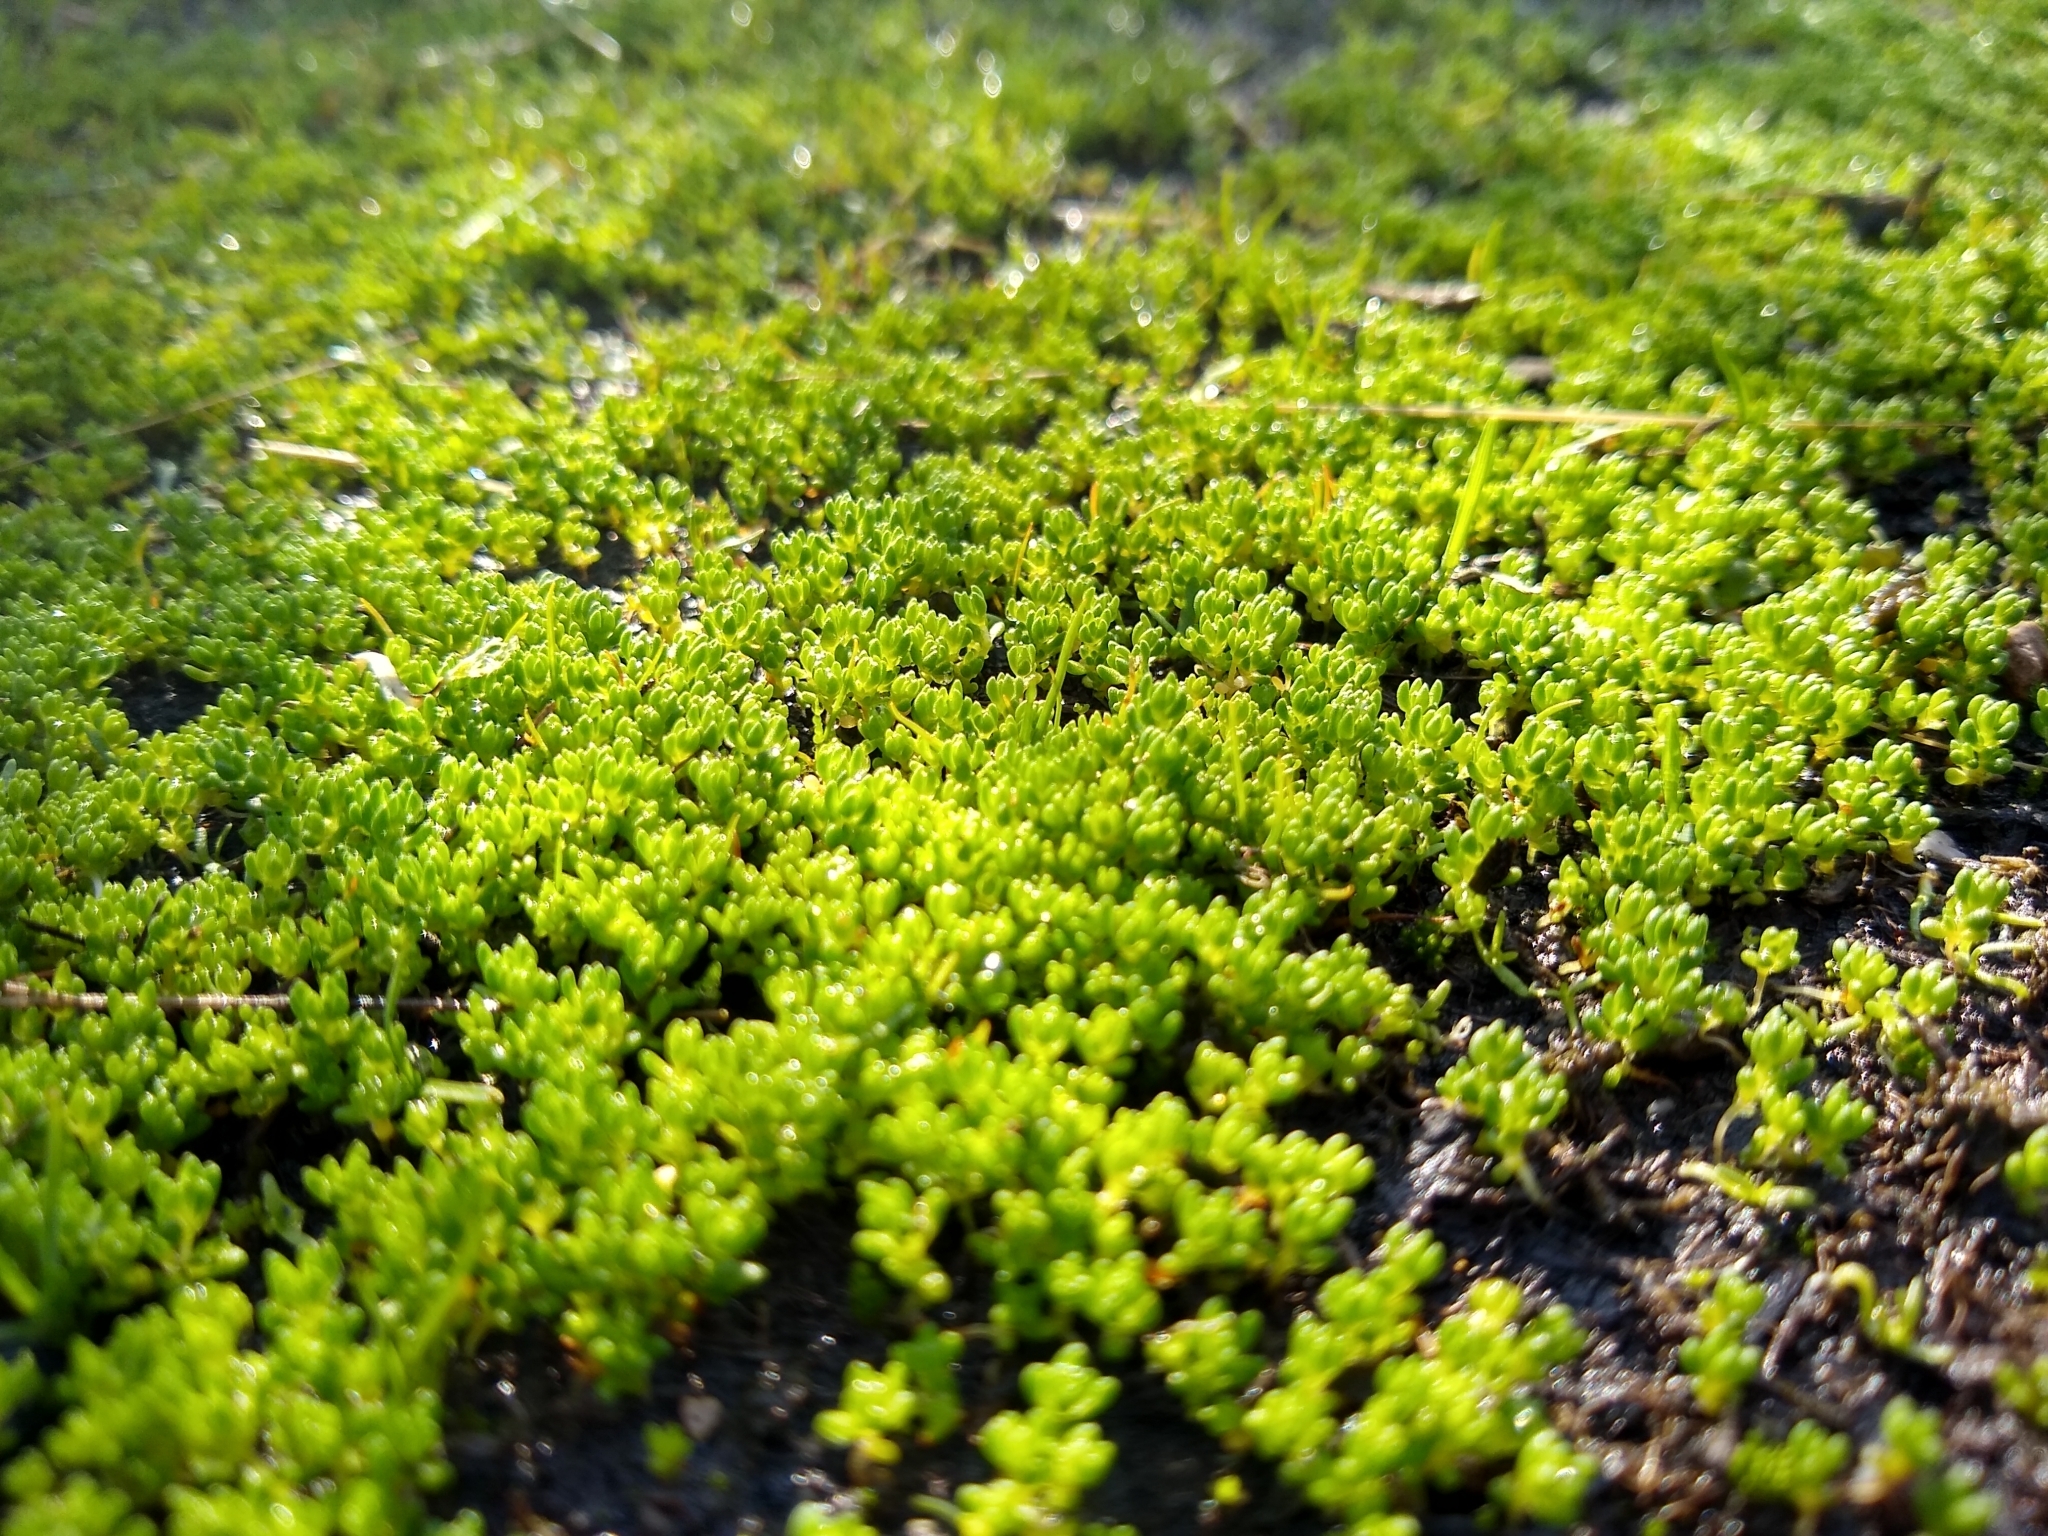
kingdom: Plantae
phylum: Tracheophyta
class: Magnoliopsida
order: Saxifragales
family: Crassulaceae
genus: Crassula
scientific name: Crassula connata
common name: Erect pygmyweed
